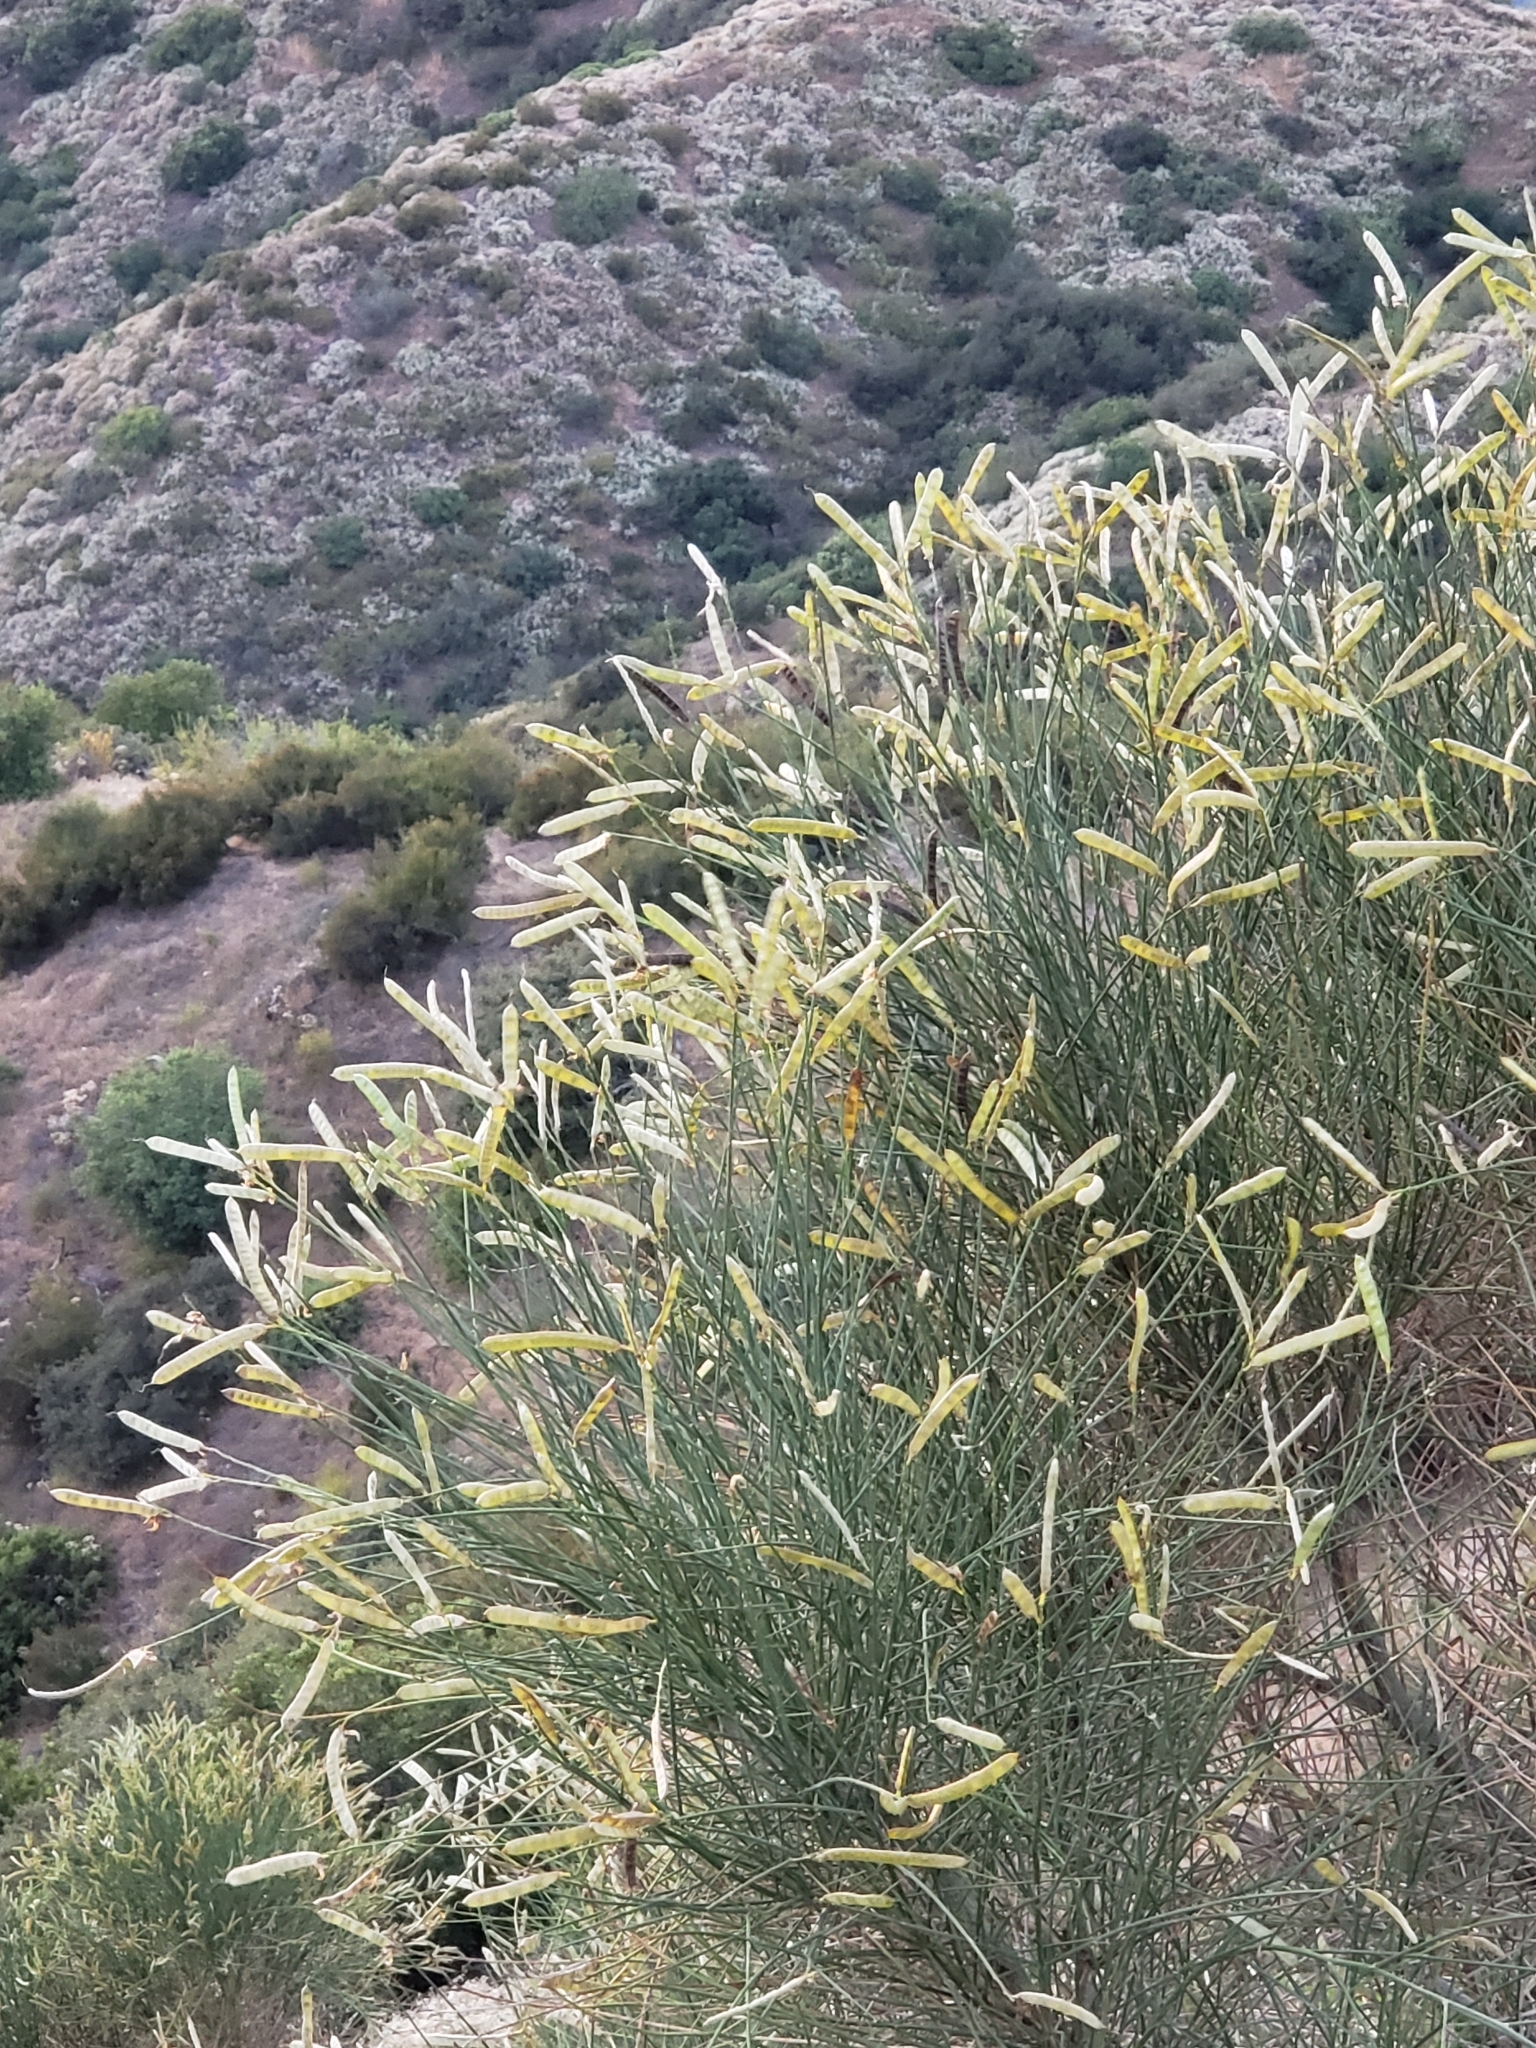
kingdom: Plantae
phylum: Tracheophyta
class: Magnoliopsida
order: Fabales
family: Fabaceae
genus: Spartium
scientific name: Spartium junceum
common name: Spanish broom
